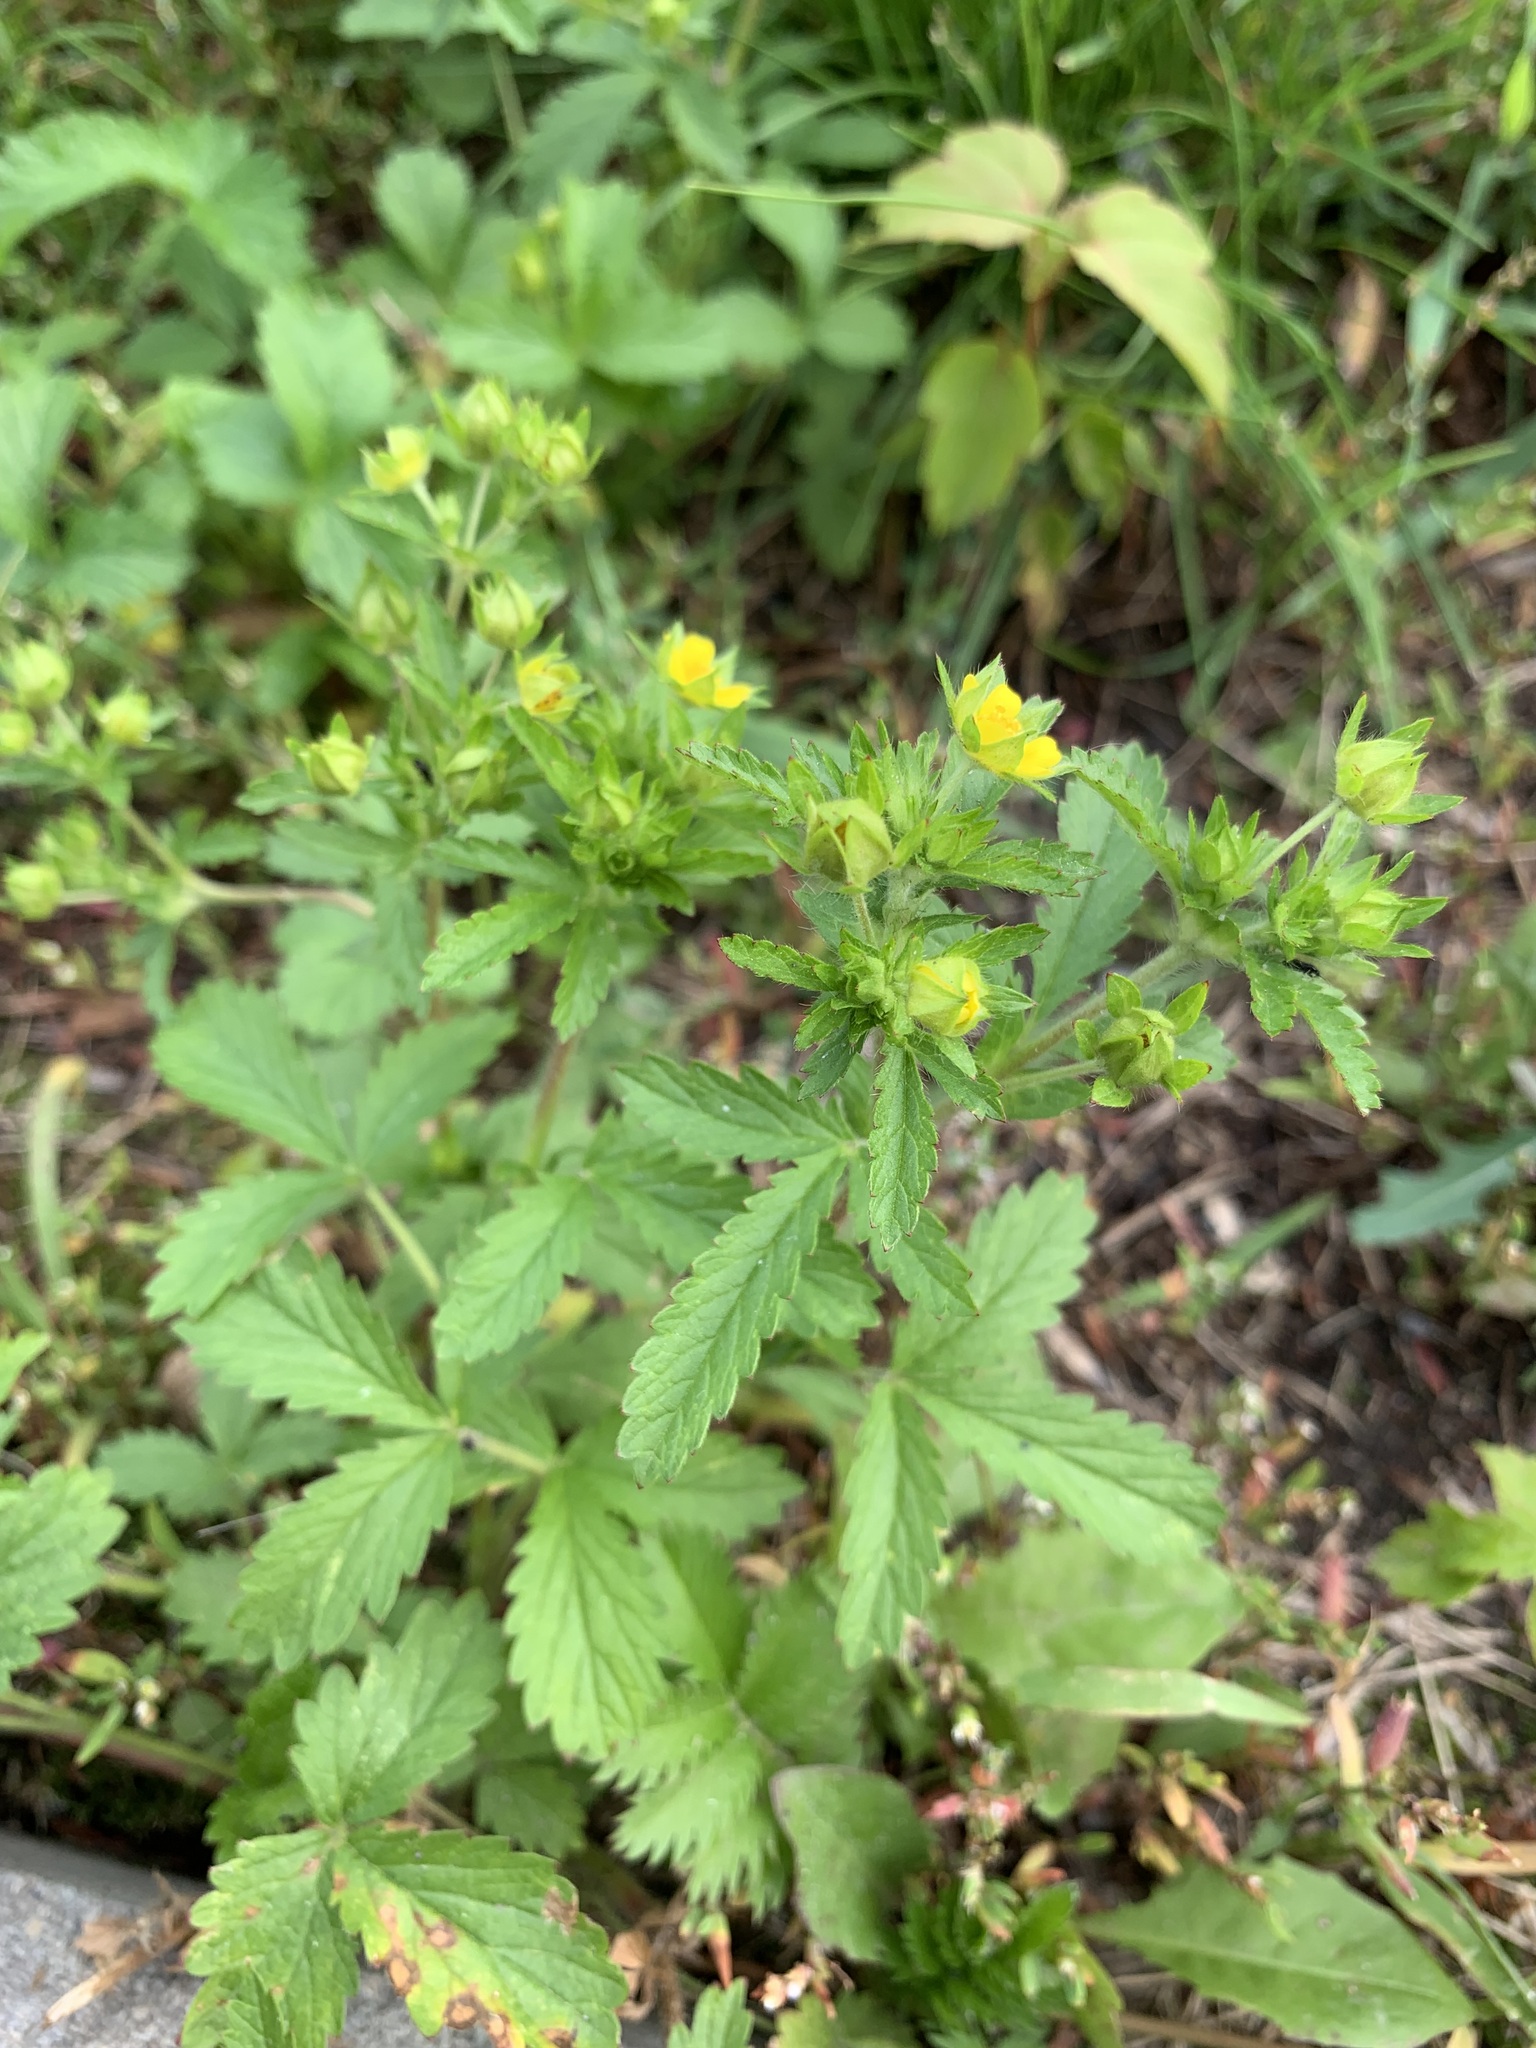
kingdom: Plantae
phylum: Tracheophyta
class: Magnoliopsida
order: Rosales
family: Rosaceae
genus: Potentilla
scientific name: Potentilla norvegica
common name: Ternate-leaved cinquefoil
